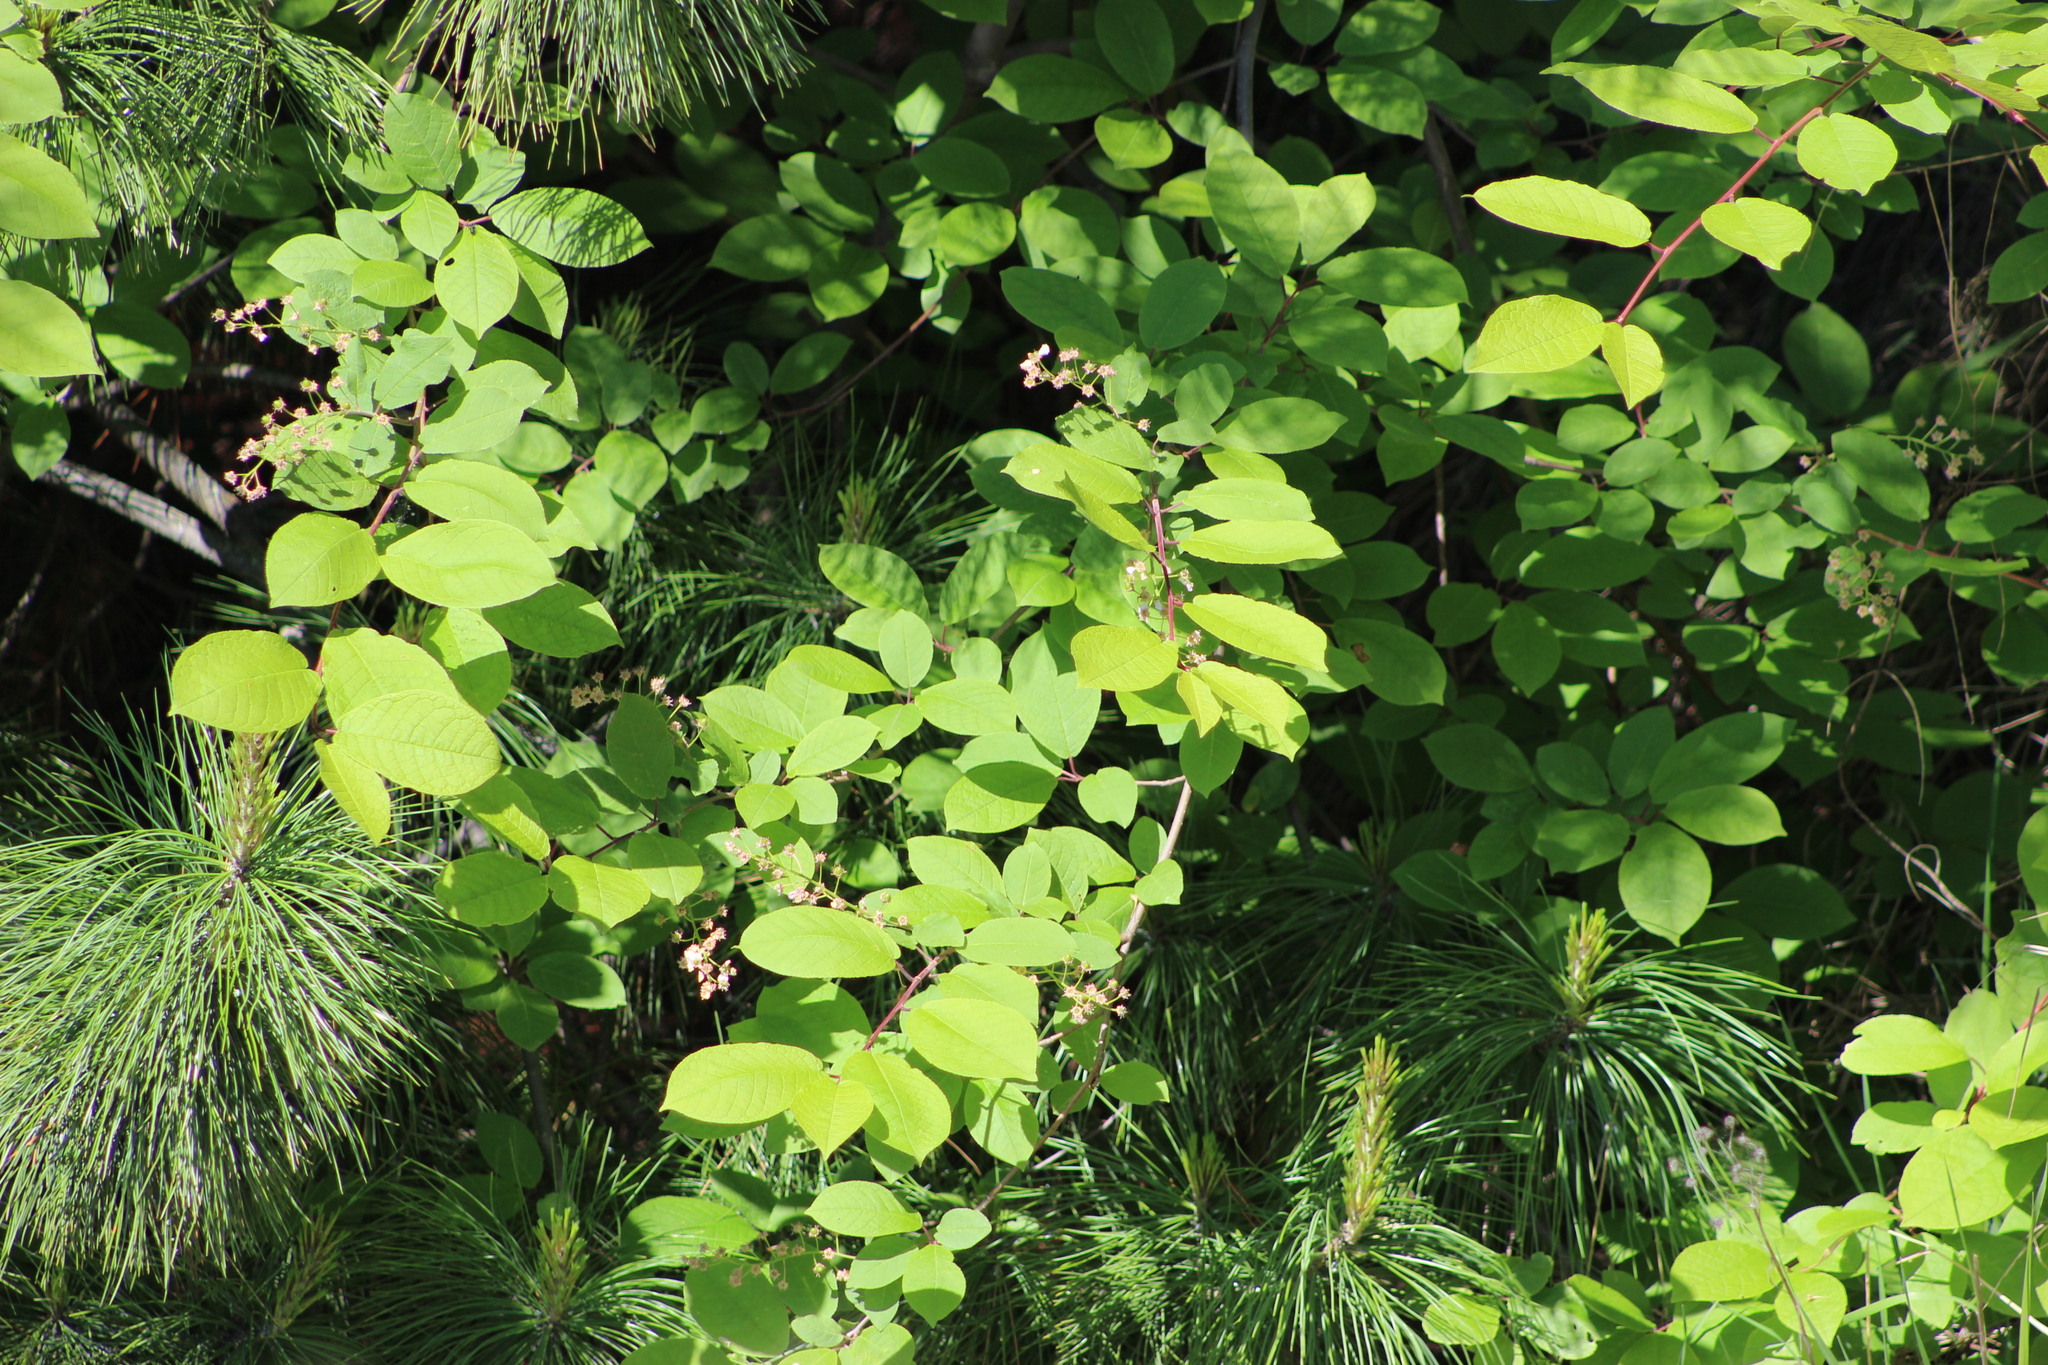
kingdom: Plantae
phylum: Tracheophyta
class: Magnoliopsida
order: Rosales
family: Rosaceae
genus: Prunus
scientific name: Prunus padus
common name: Bird cherry
